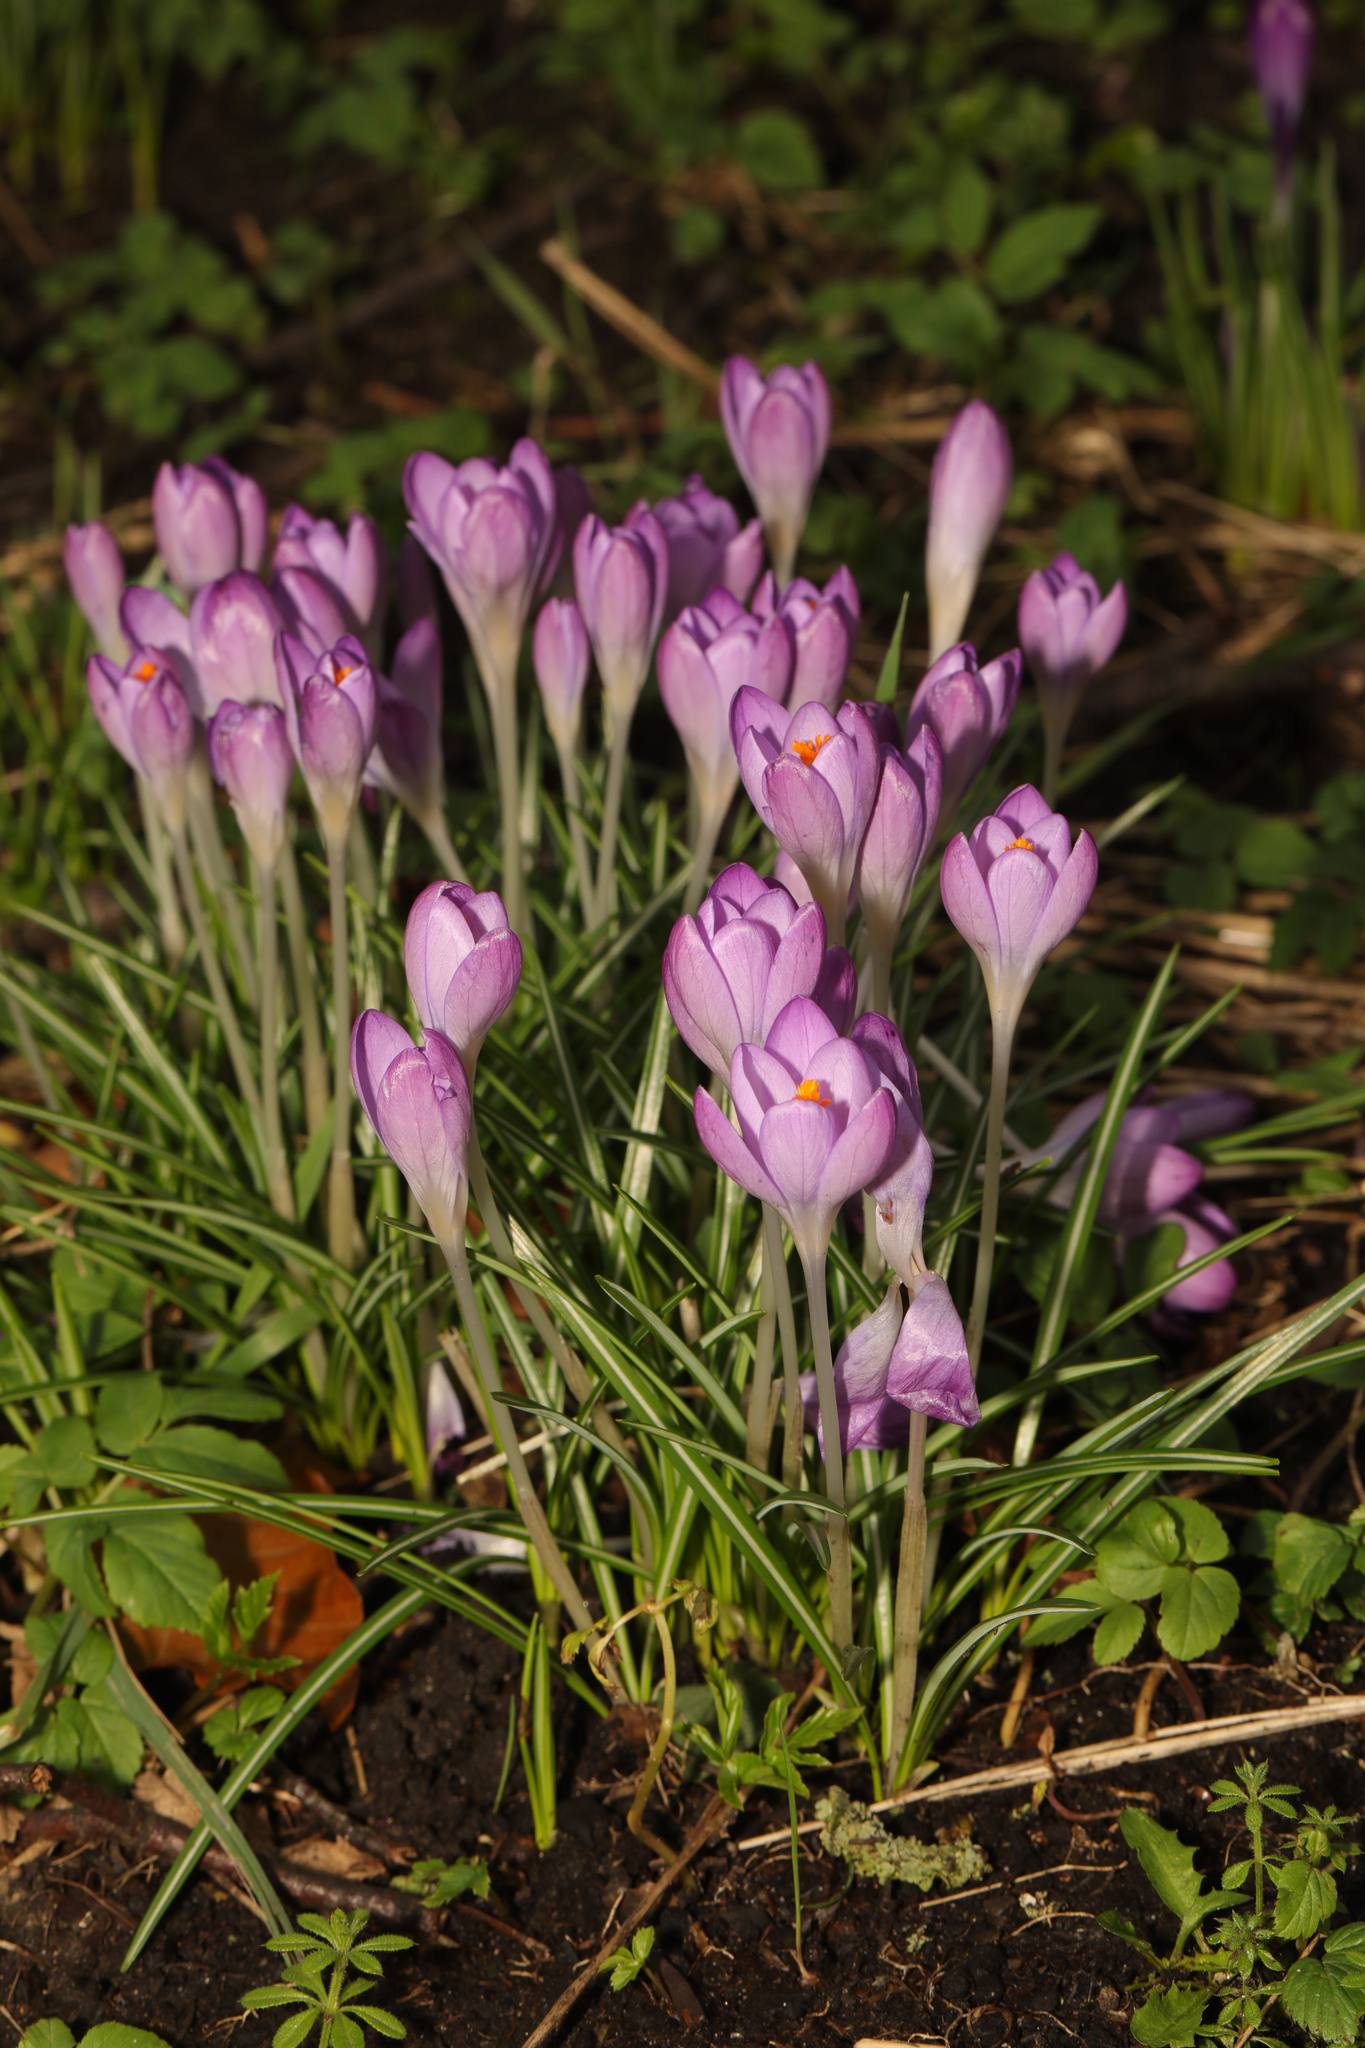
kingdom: Plantae
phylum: Tracheophyta
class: Liliopsida
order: Asparagales
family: Iridaceae
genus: Crocus
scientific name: Crocus tommasinianus
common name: Early crocus
